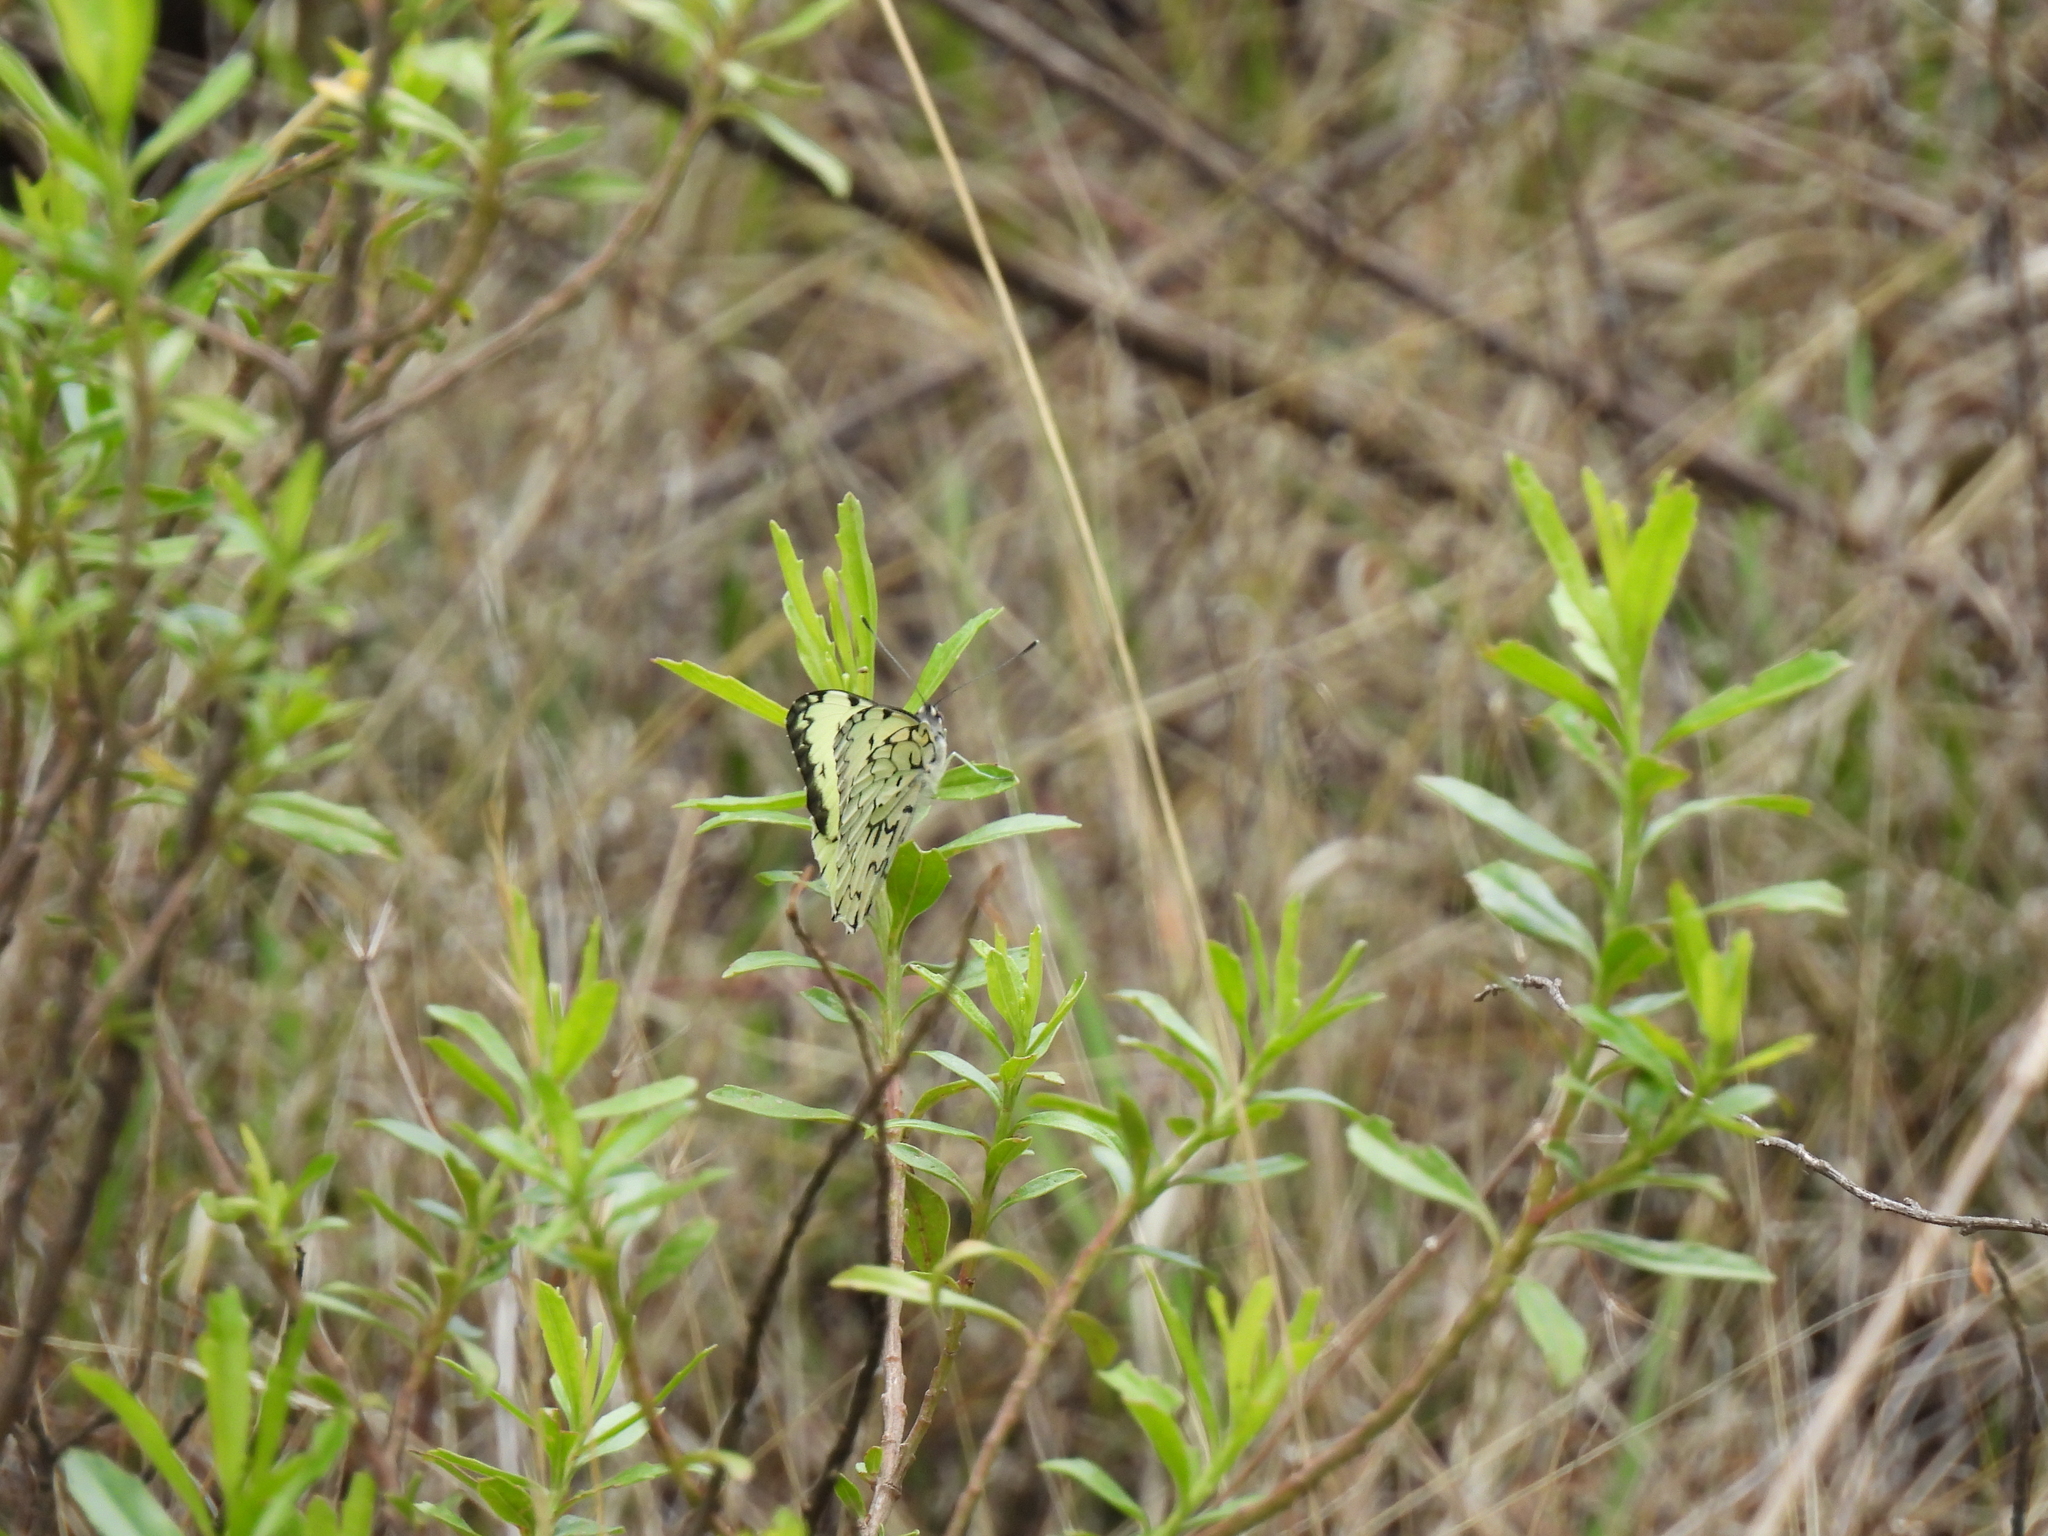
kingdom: Animalia
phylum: Arthropoda
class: Insecta
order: Lepidoptera
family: Pieridae
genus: Hesperocharis
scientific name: Hesperocharis graphites
